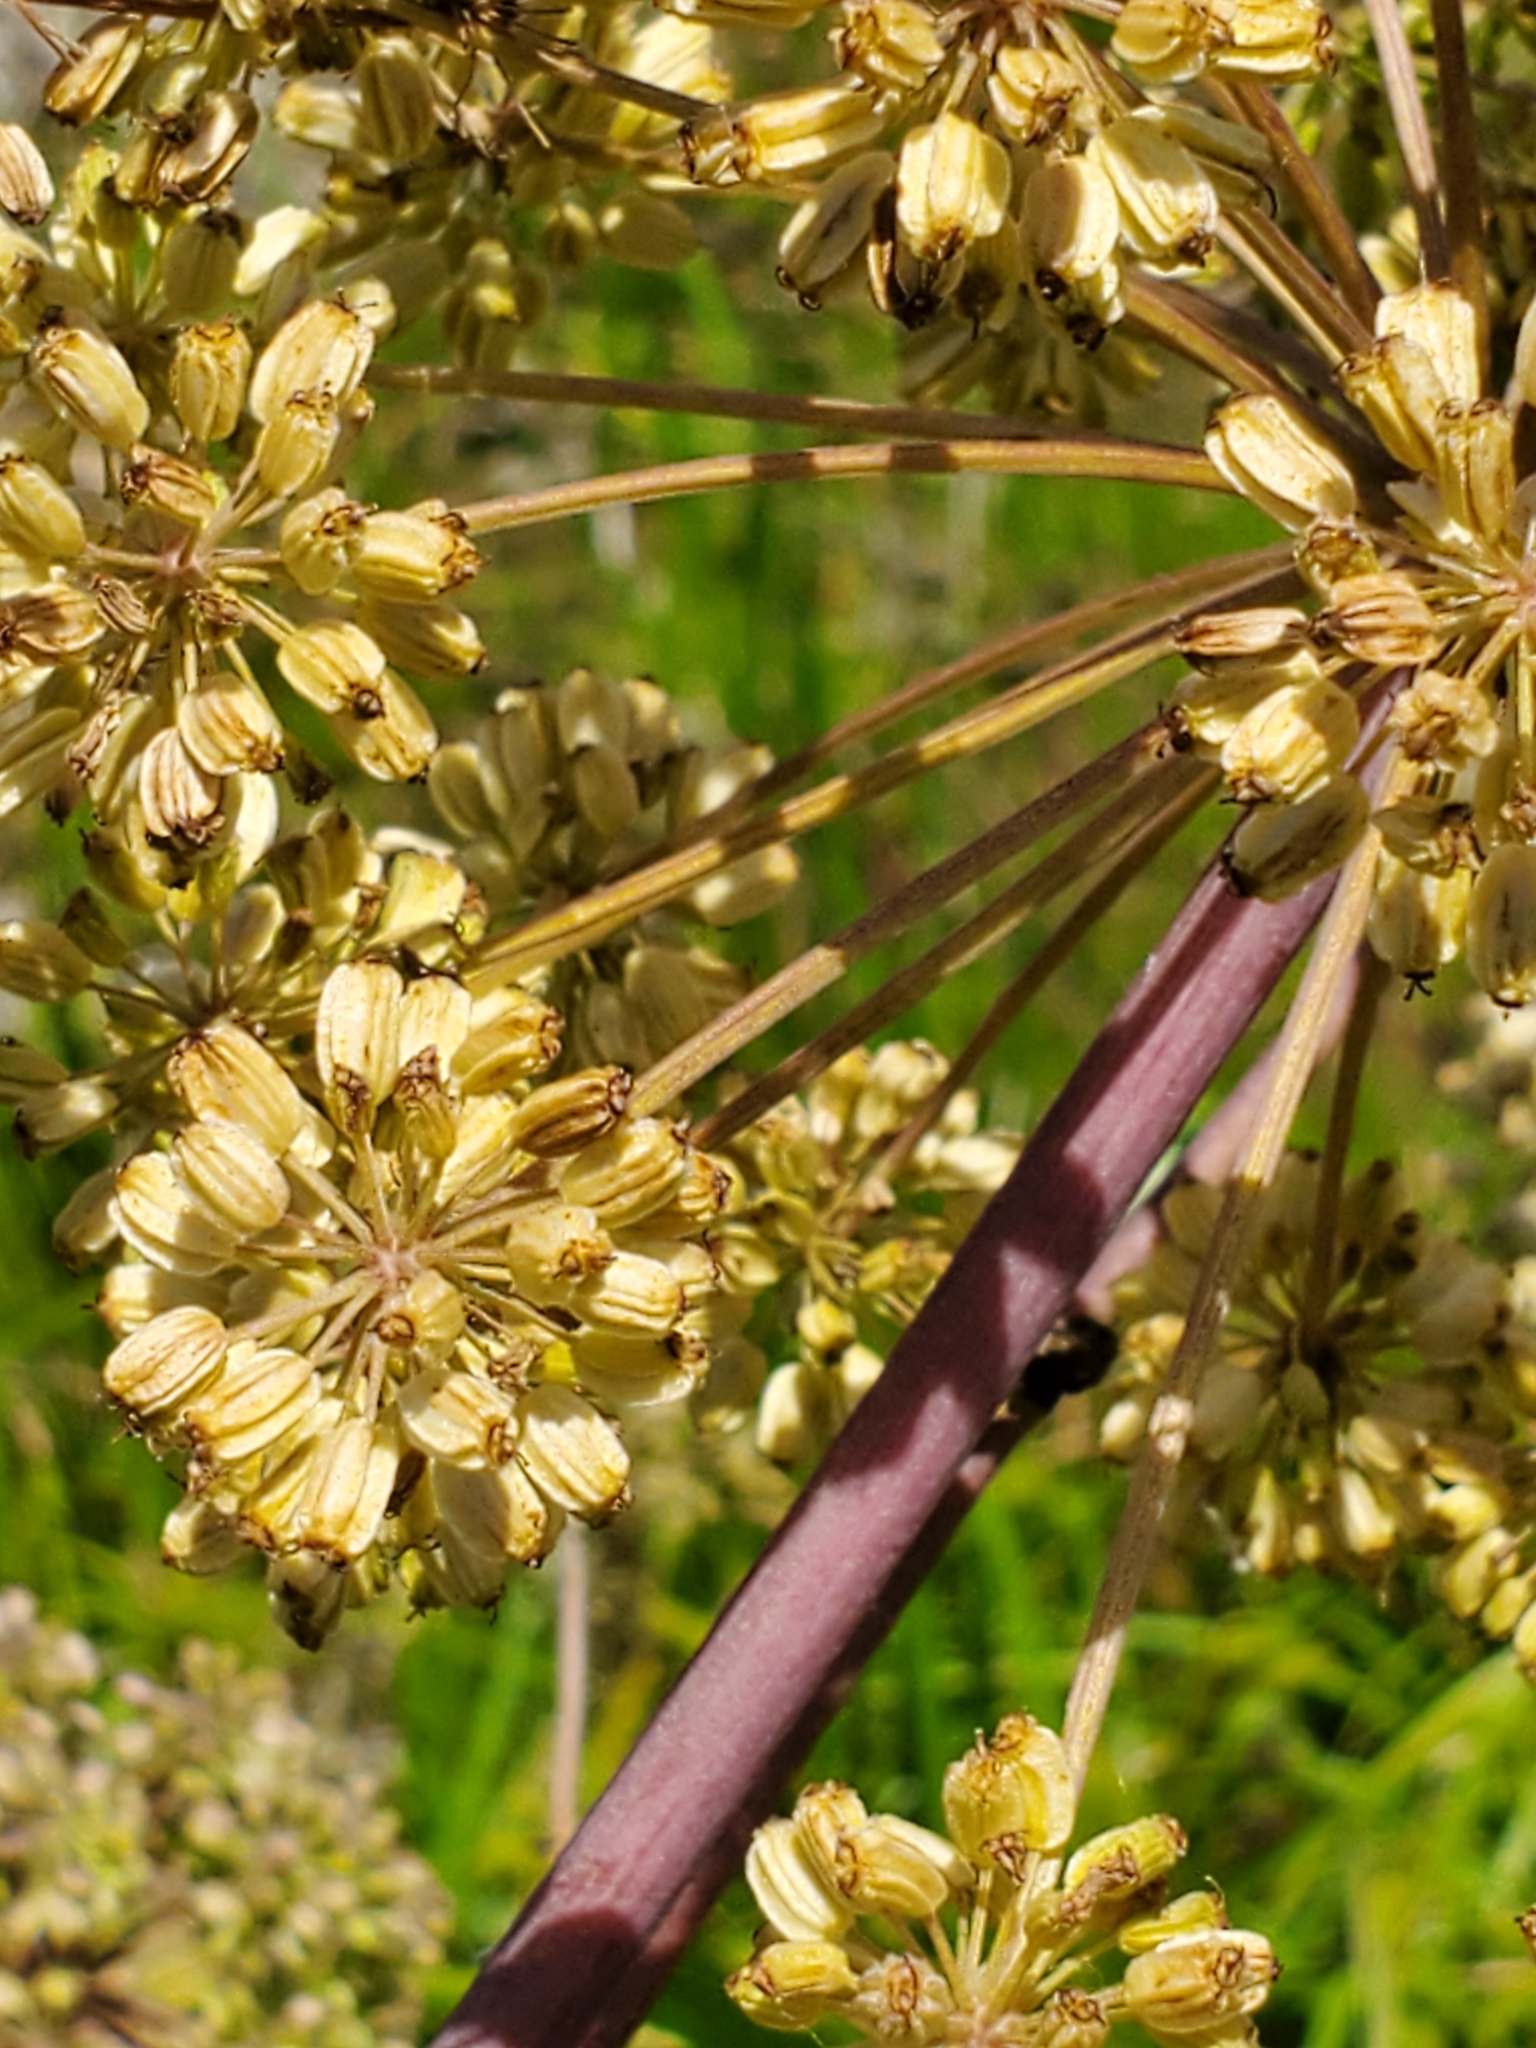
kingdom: Plantae
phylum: Tracheophyta
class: Magnoliopsida
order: Apiales
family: Apiaceae
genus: Angelica
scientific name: Angelica atropurpurea
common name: Great angelica
